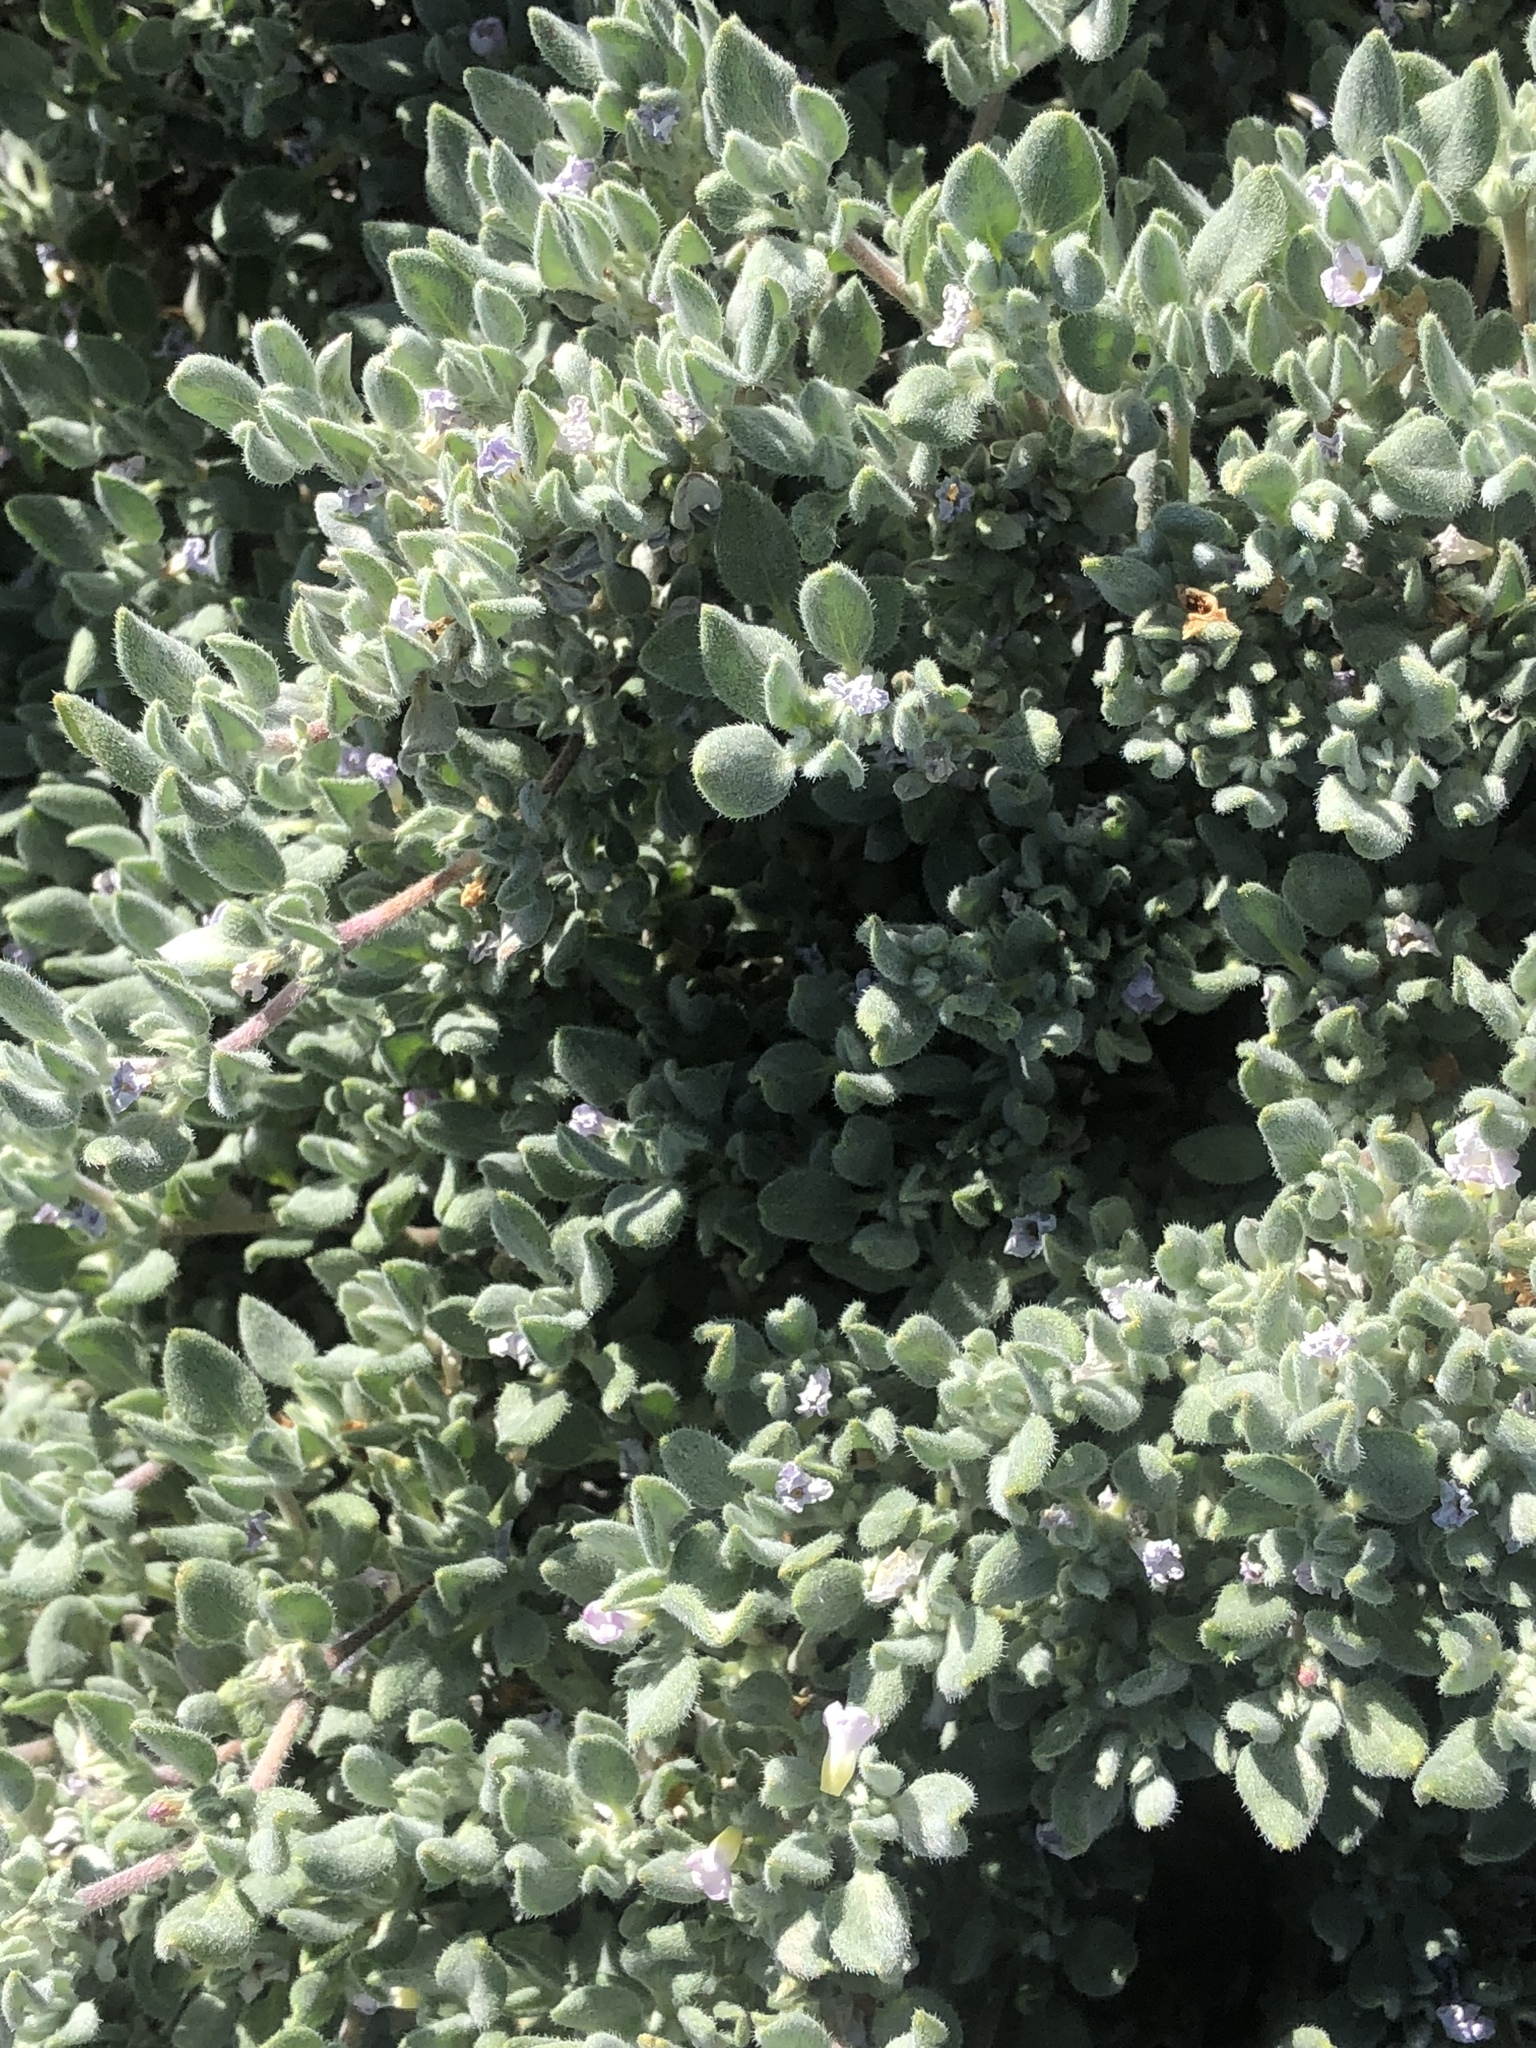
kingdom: Plantae
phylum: Tracheophyta
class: Magnoliopsida
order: Boraginales
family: Ehretiaceae
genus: Tiquilia
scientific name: Tiquilia canescens
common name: Hairy tiquilia
